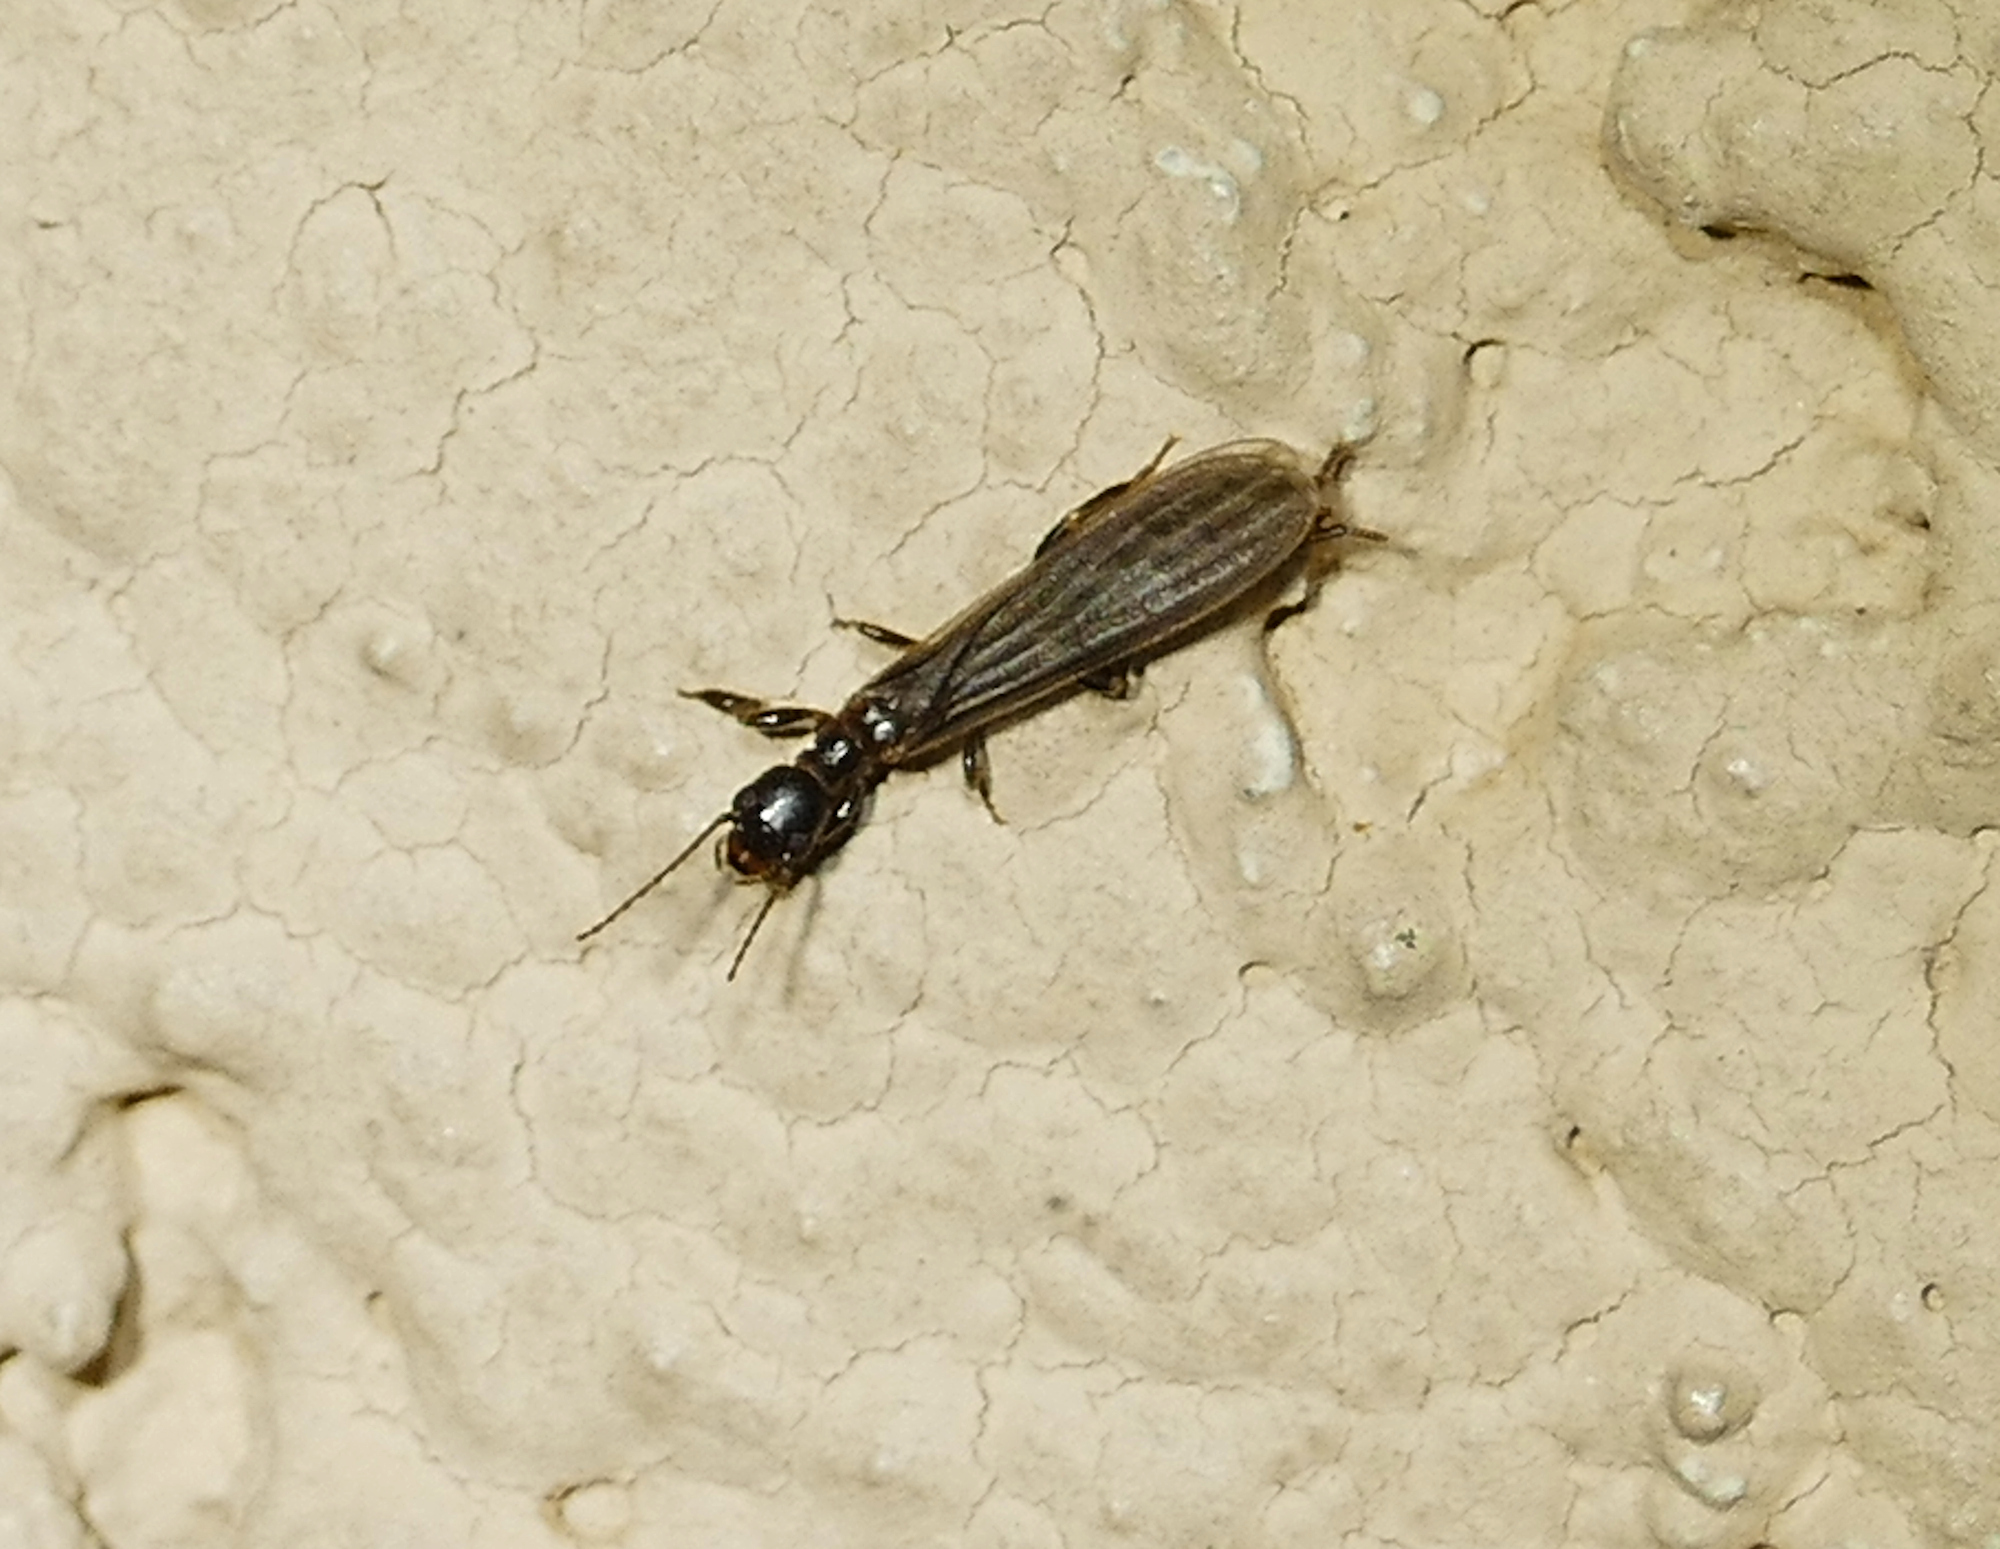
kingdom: Animalia
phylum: Arthropoda
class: Insecta
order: Embioptera
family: Oligotomidae
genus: Oligotoma
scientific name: Oligotoma nigra
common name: Black webspinner
